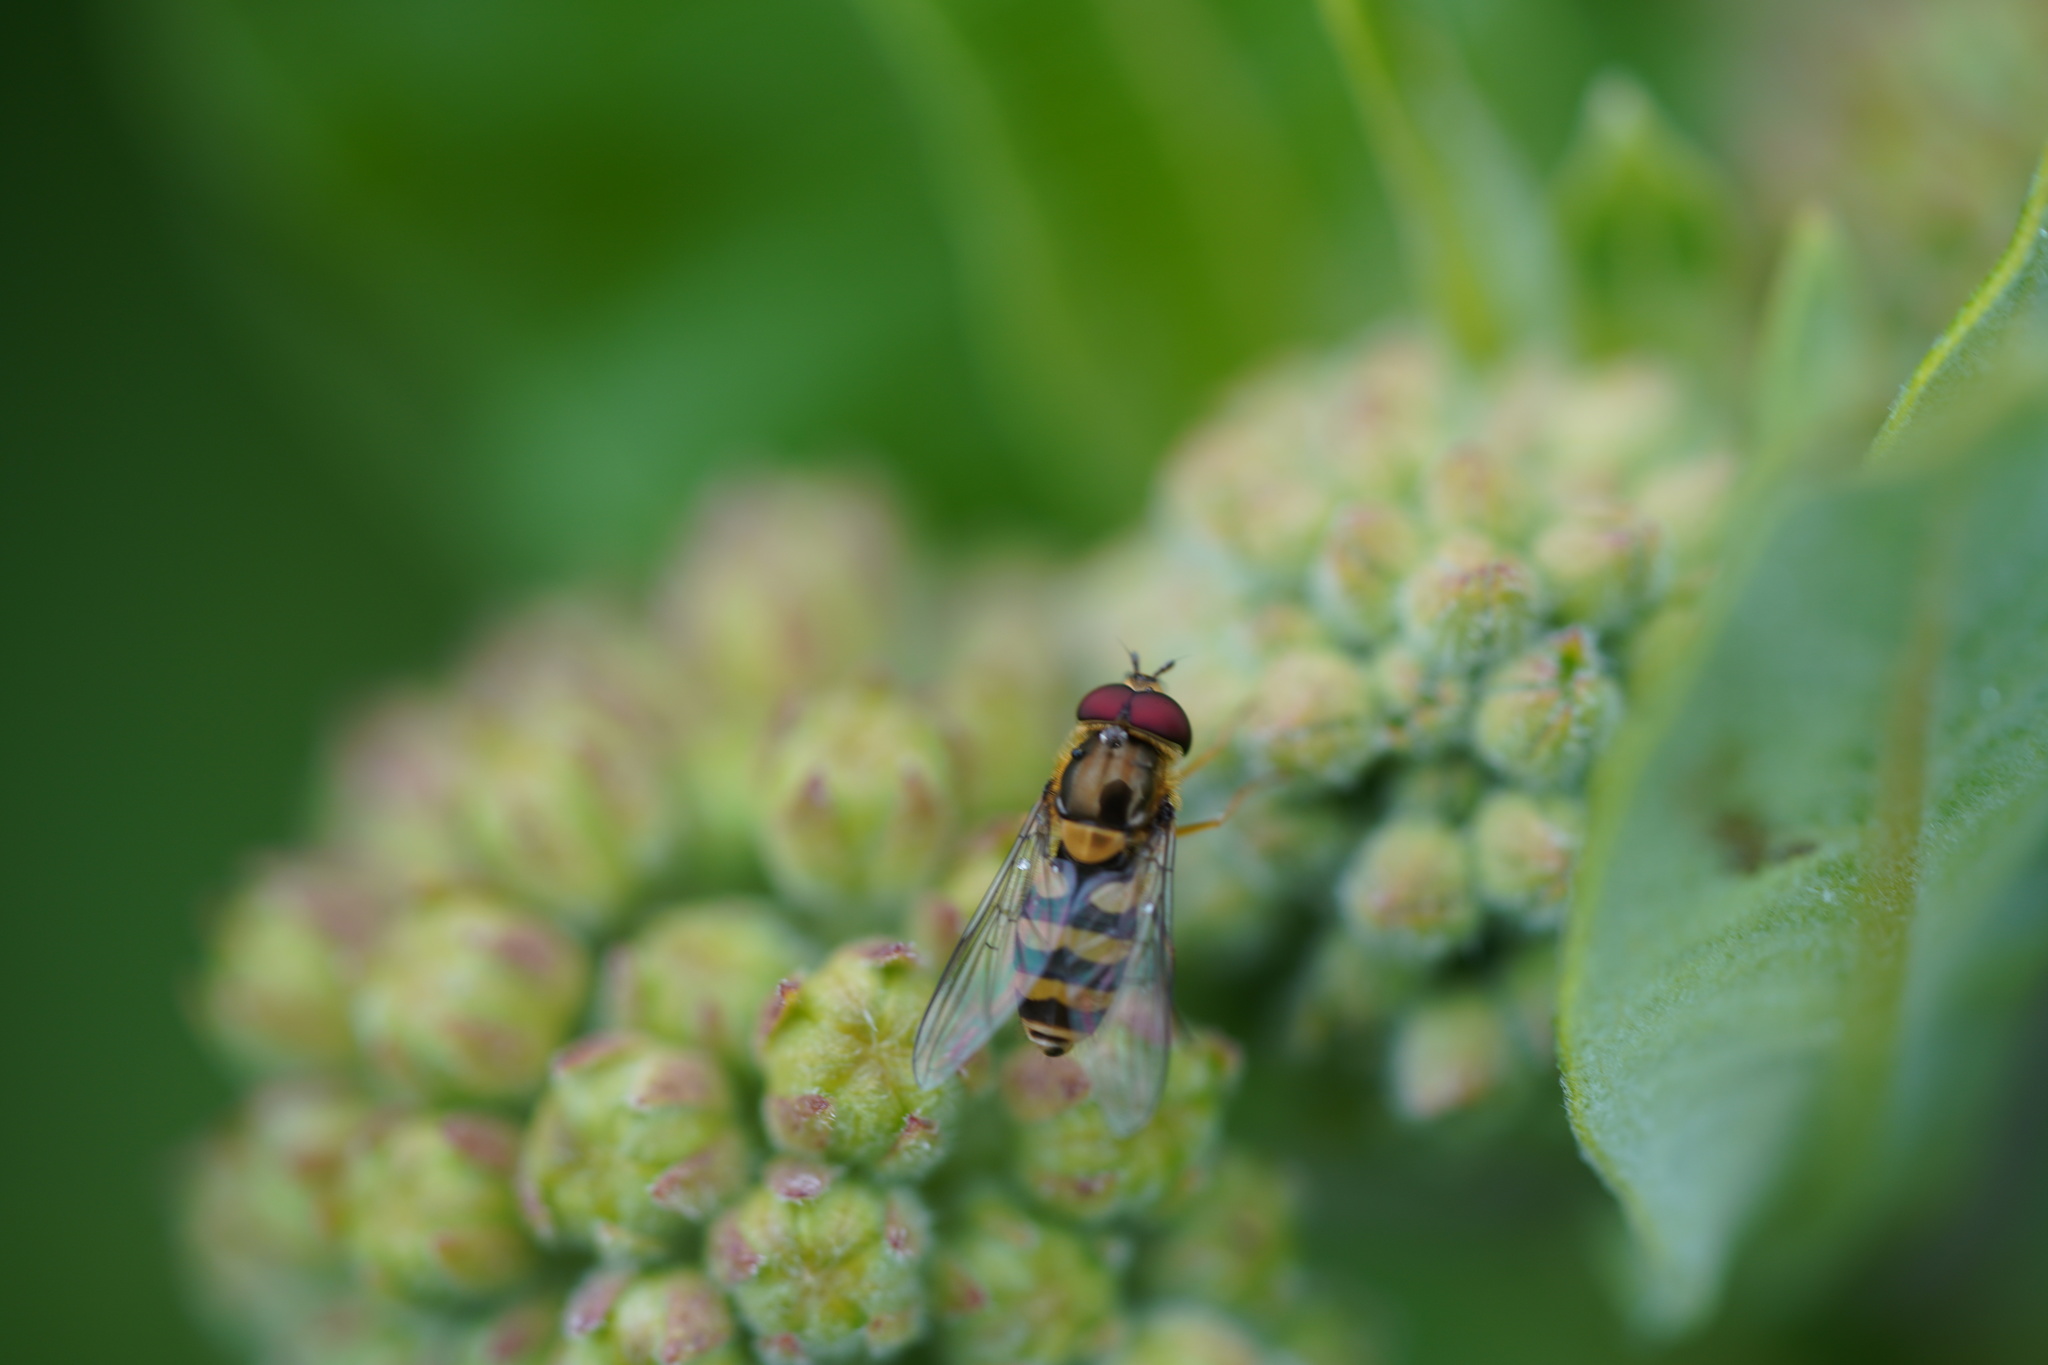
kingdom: Animalia
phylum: Arthropoda
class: Insecta
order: Diptera
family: Syrphidae
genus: Syrphus
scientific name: Syrphus
